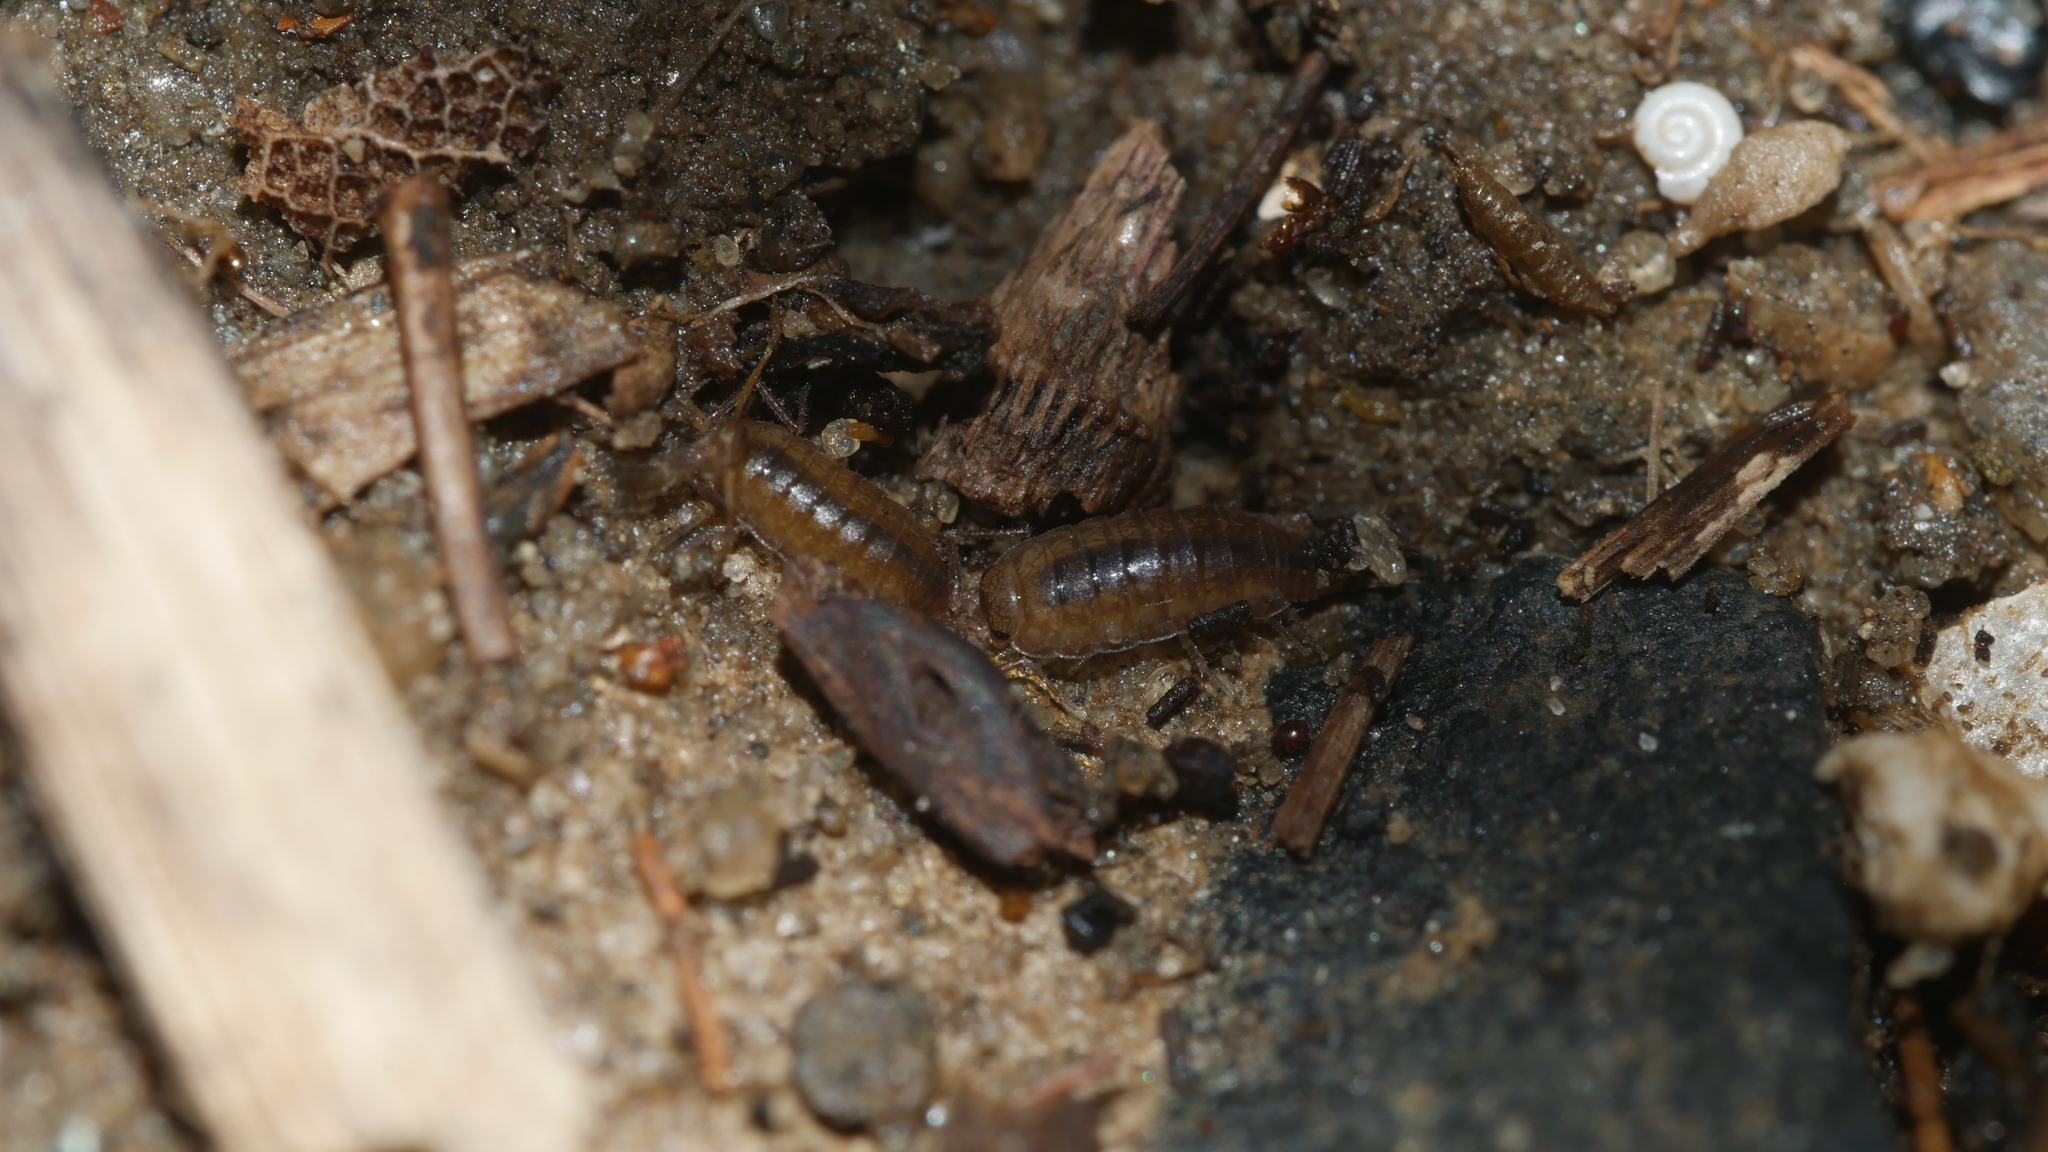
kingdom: Animalia
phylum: Arthropoda
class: Malacostraca
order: Isopoda
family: Halophilosciidae
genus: Halophiloscia
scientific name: Halophiloscia couchii
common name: Isopod
